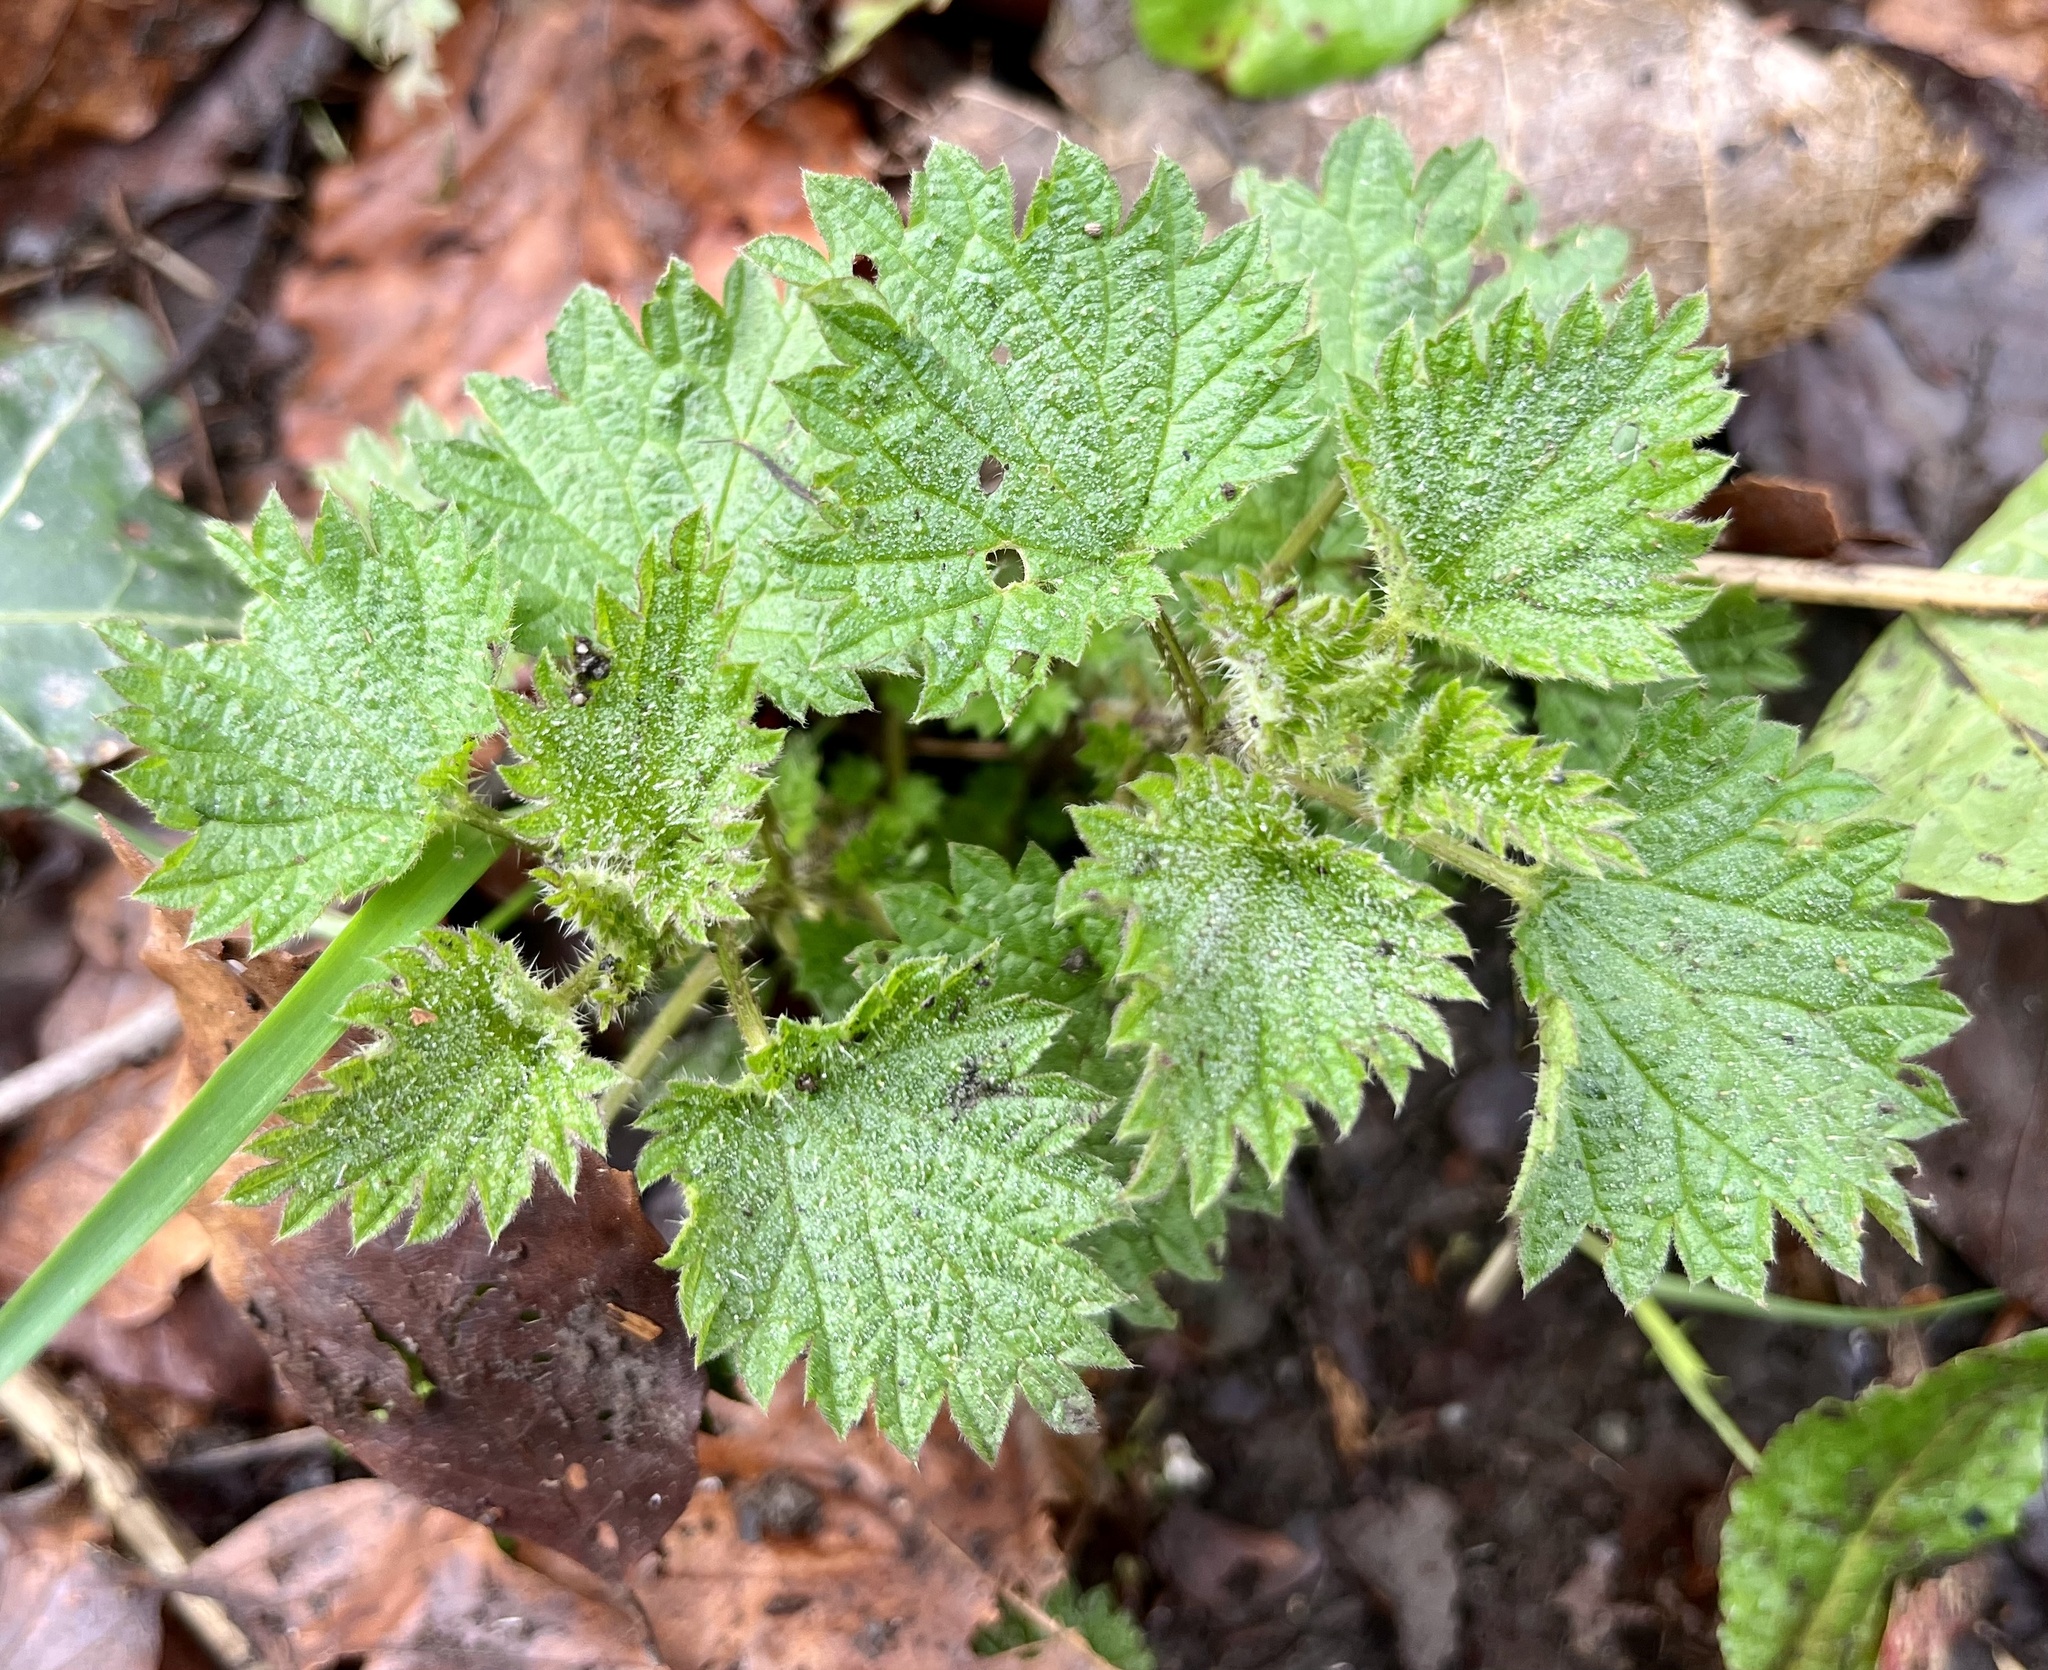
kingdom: Plantae
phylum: Tracheophyta
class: Magnoliopsida
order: Rosales
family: Urticaceae
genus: Urtica
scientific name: Urtica dioica
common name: Common nettle
